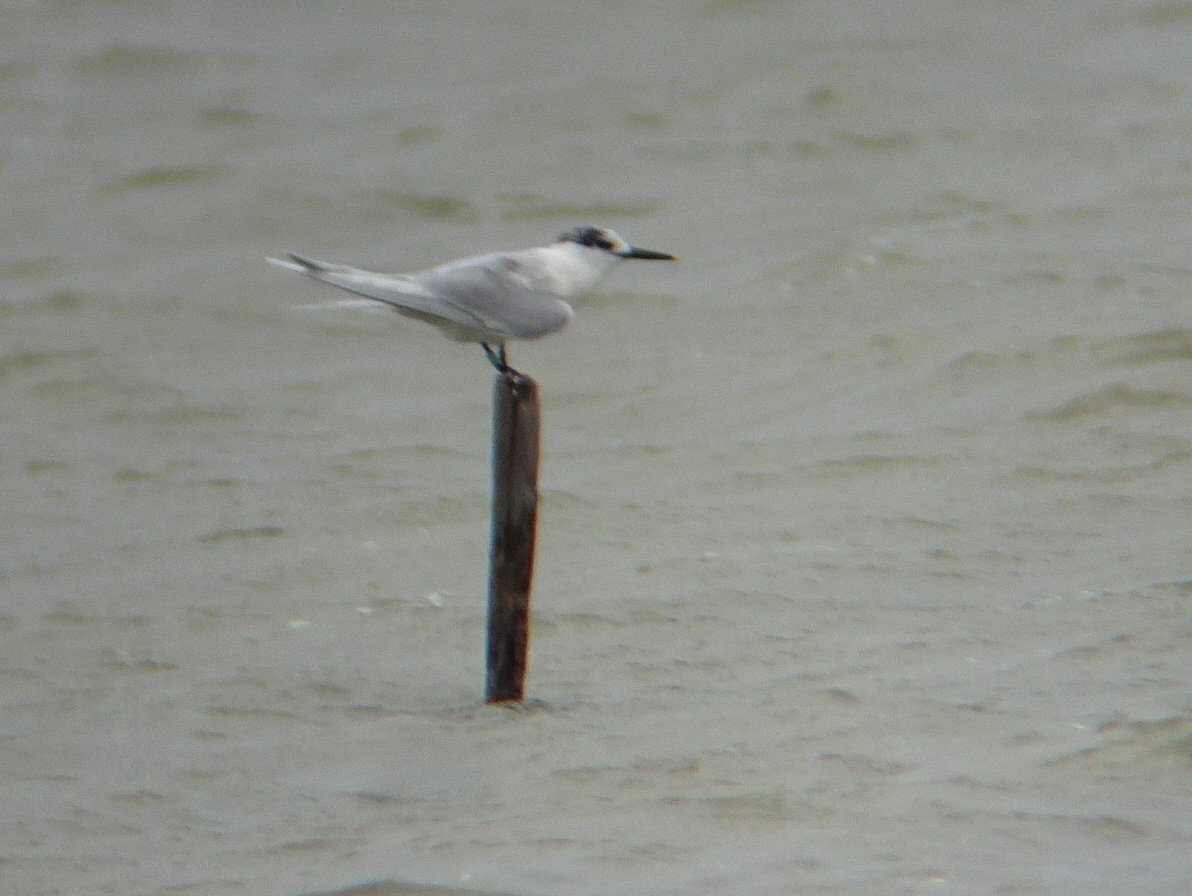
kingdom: Animalia
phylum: Chordata
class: Aves
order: Charadriiformes
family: Laridae
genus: Thalasseus
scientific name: Thalasseus sandvicensis
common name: Sandwich tern
